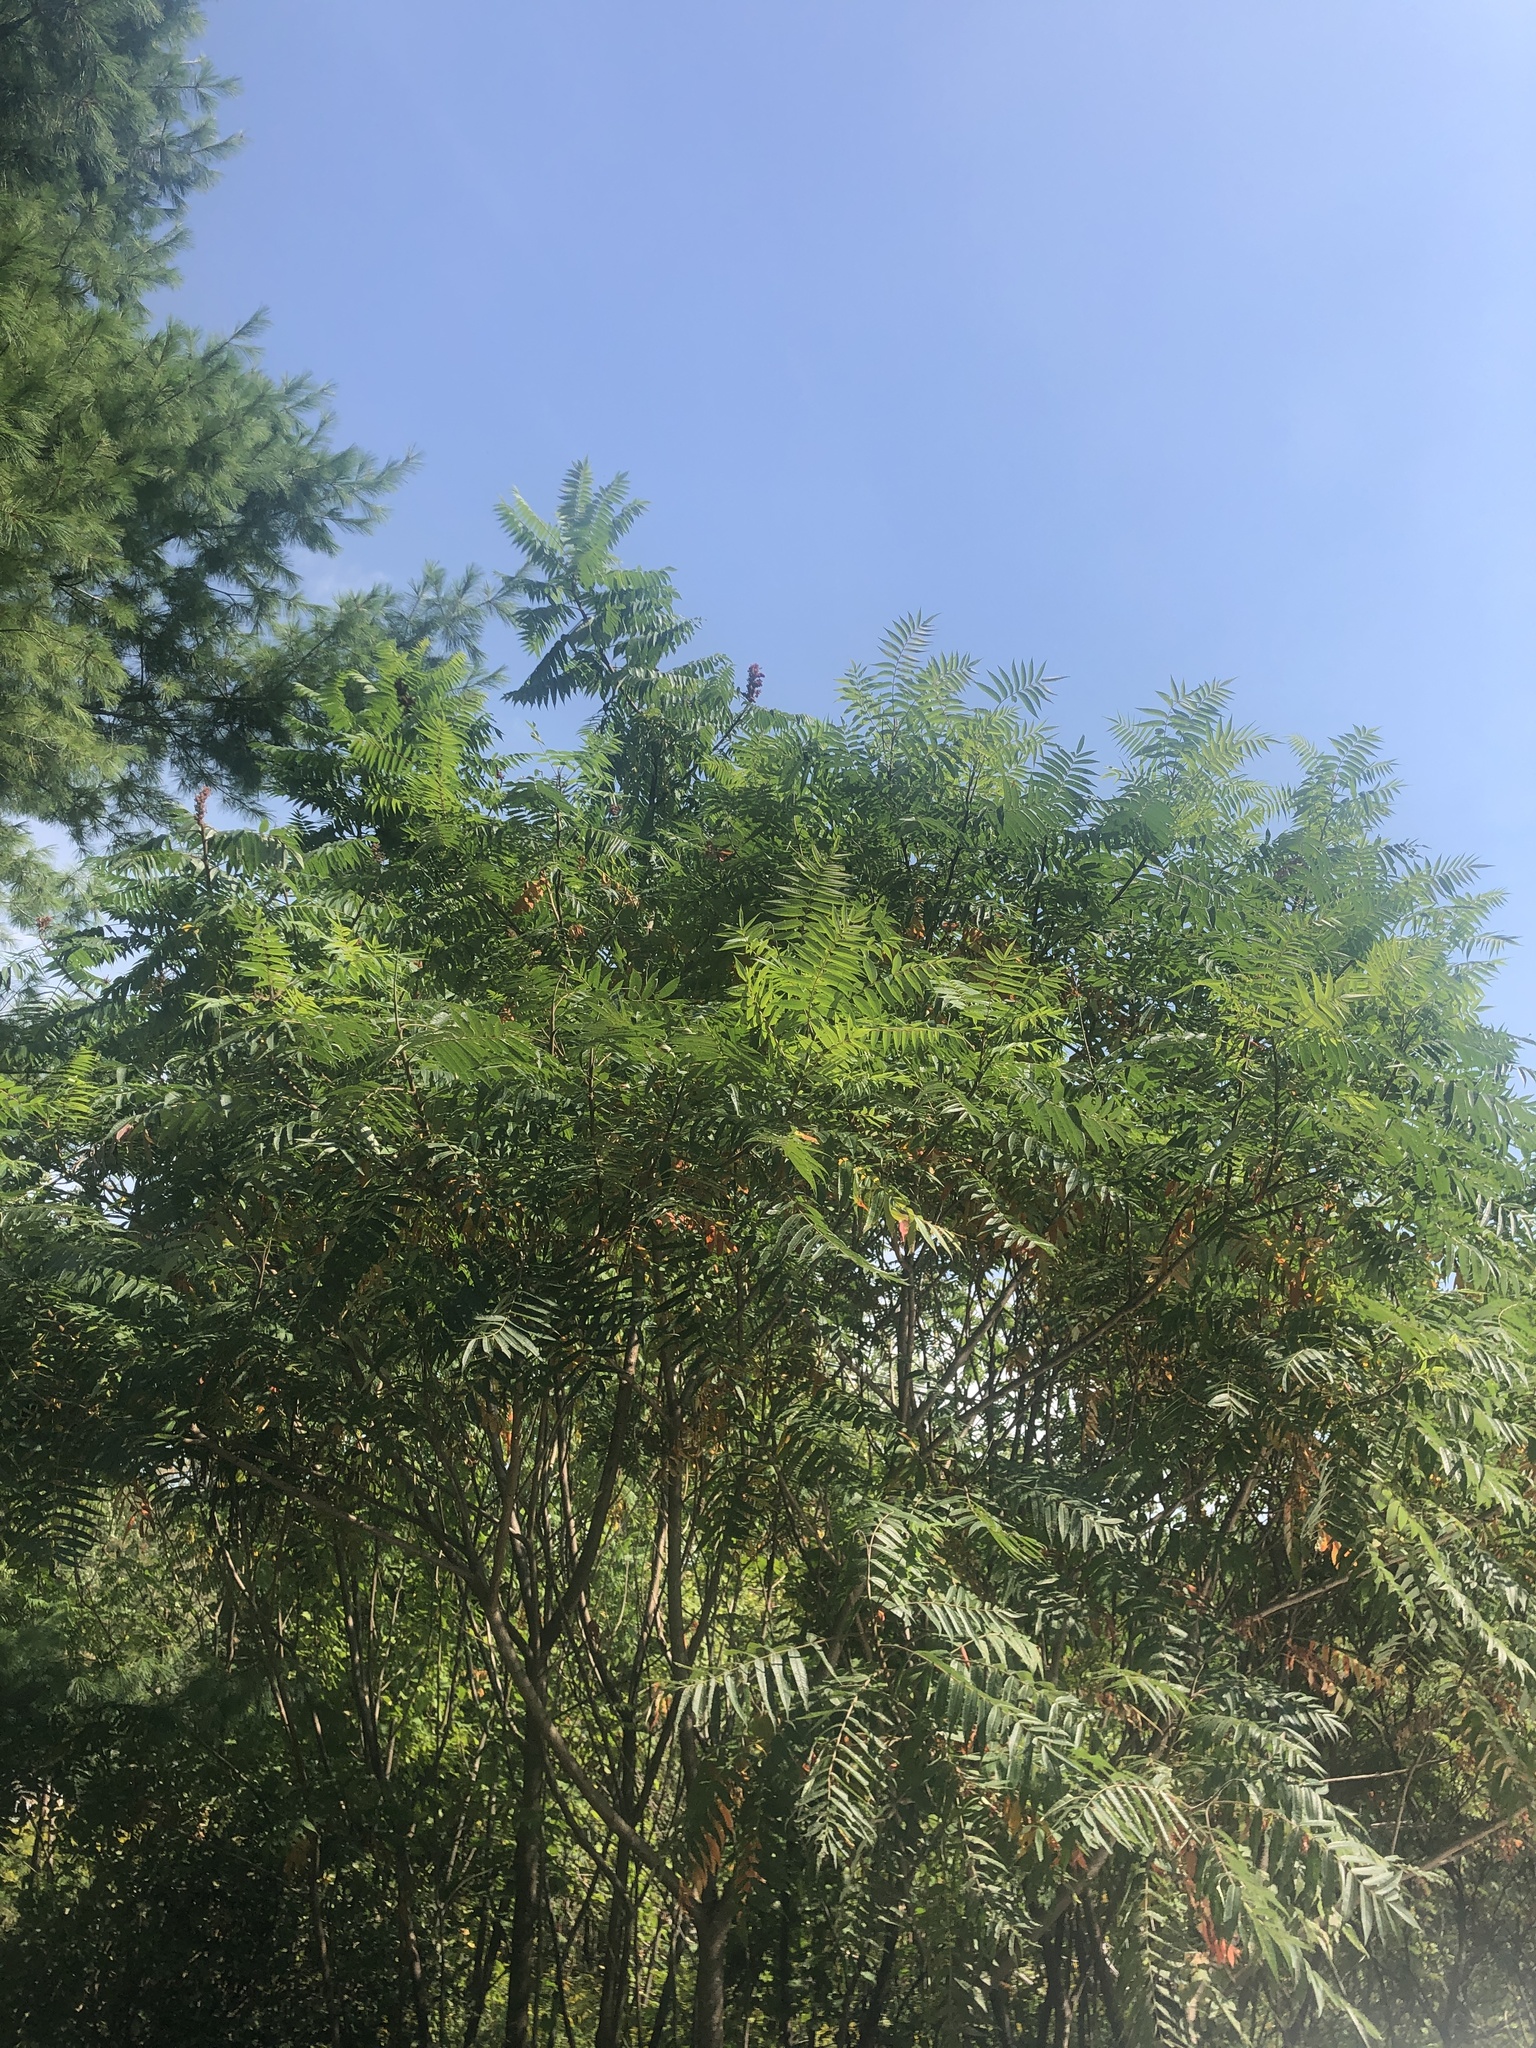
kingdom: Plantae
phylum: Tracheophyta
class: Magnoliopsida
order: Sapindales
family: Anacardiaceae
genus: Rhus
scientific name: Rhus typhina
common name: Staghorn sumac
